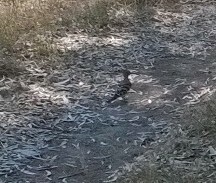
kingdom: Animalia
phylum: Chordata
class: Aves
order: Bucerotiformes
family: Upupidae
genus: Upupa
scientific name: Upupa epops
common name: Eurasian hoopoe
